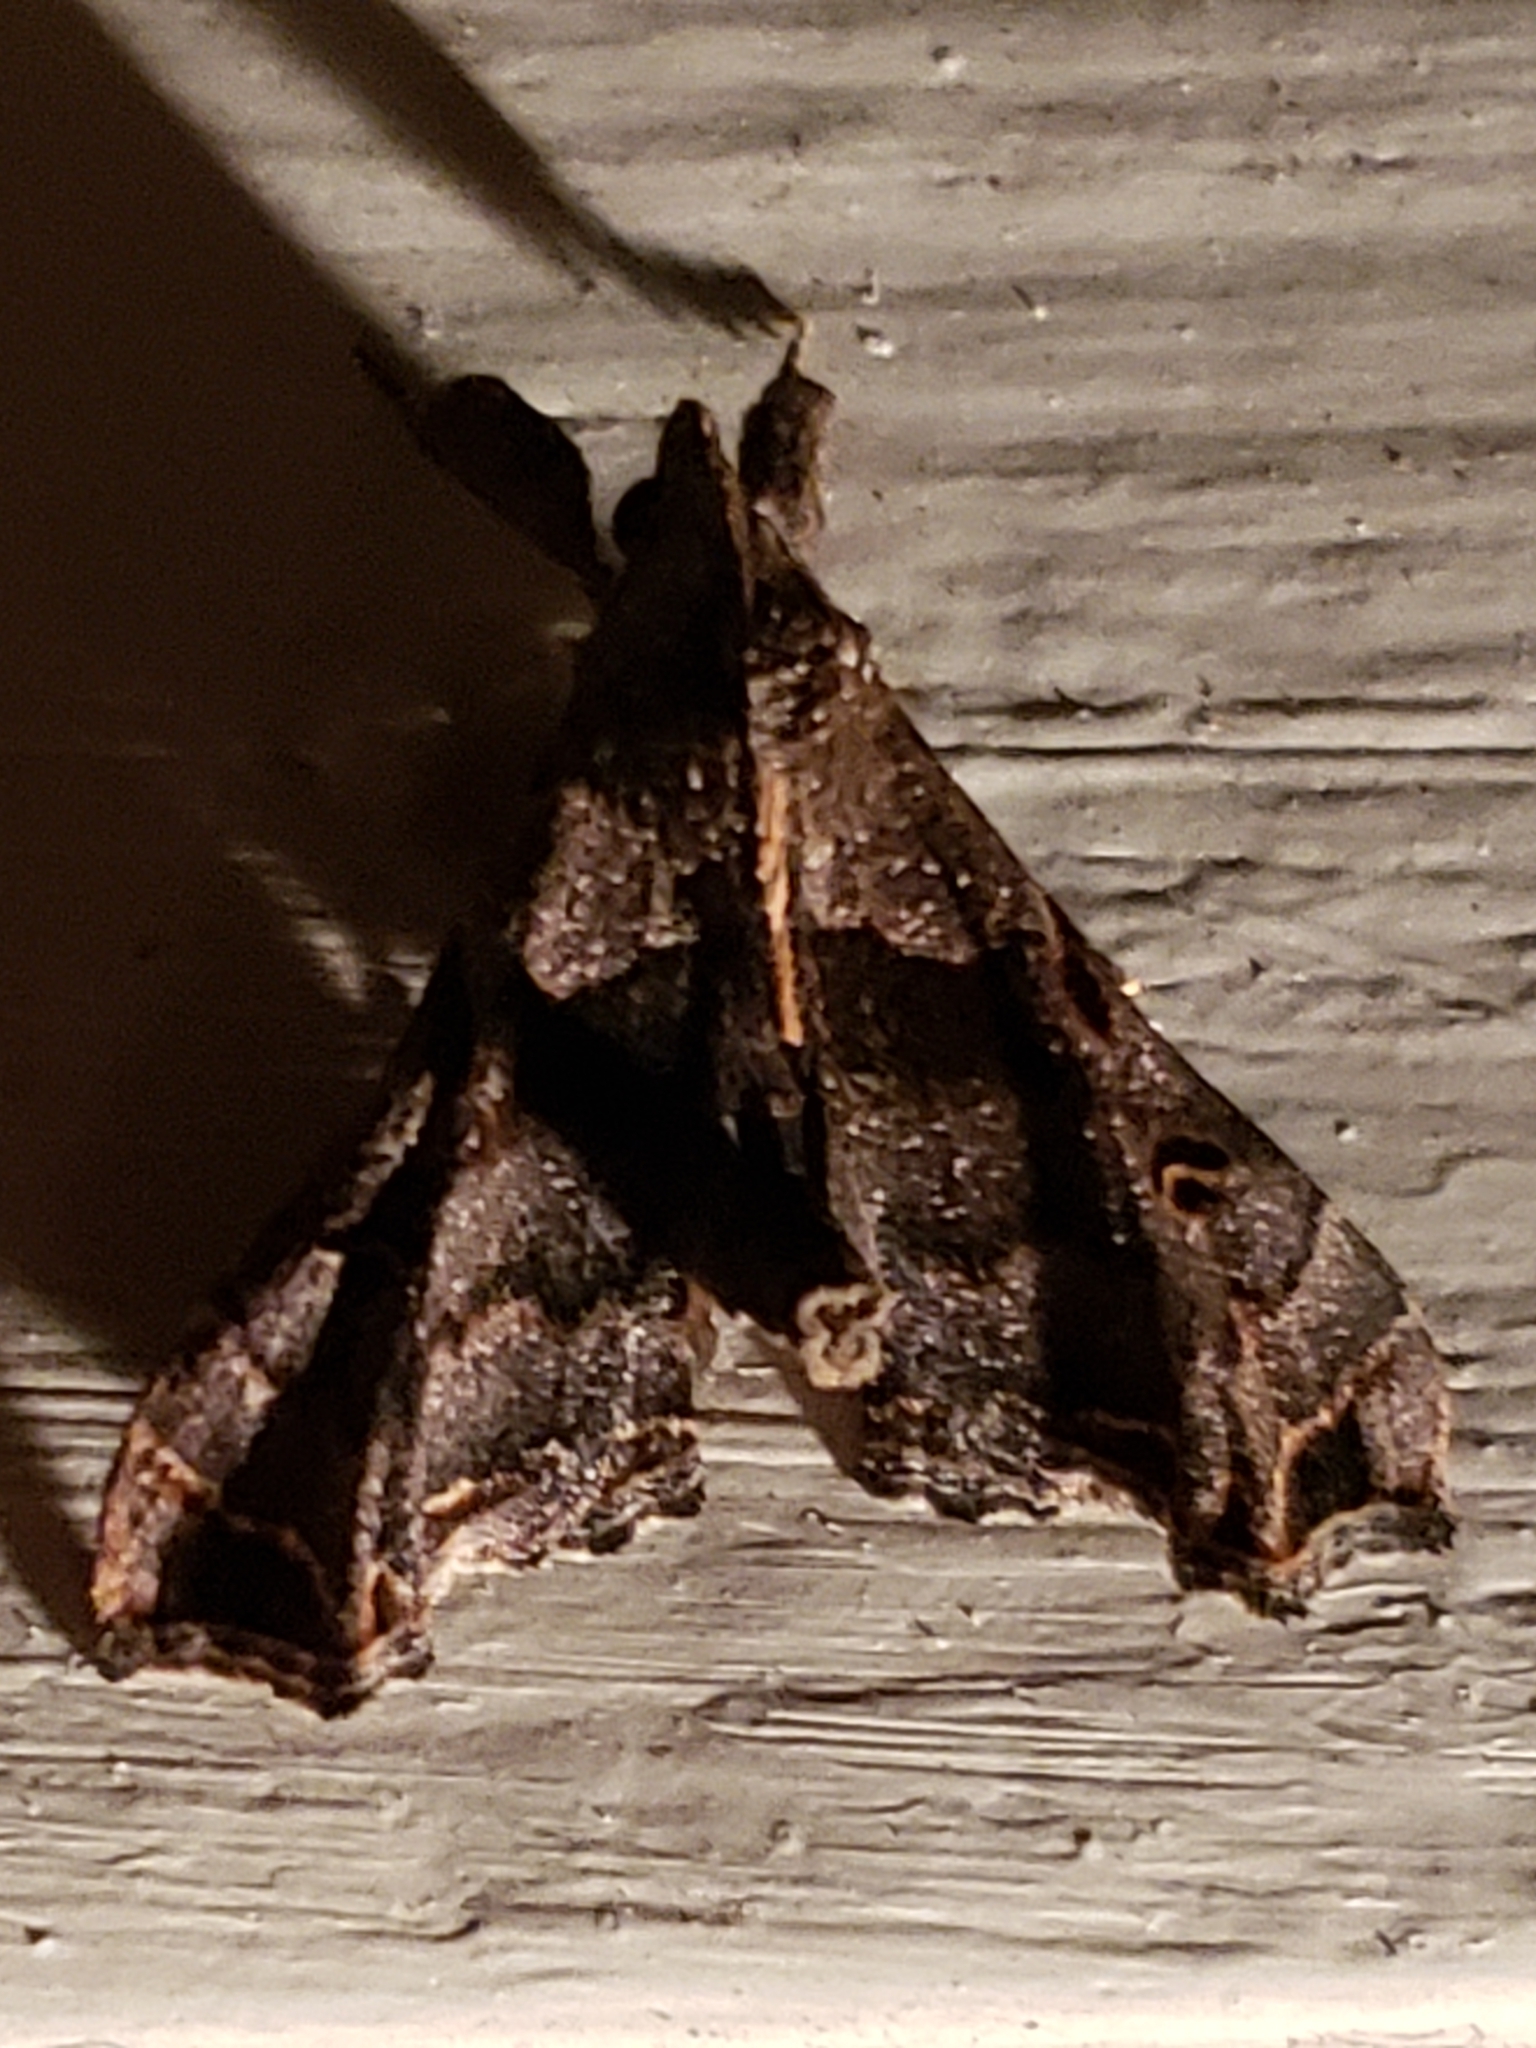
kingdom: Animalia
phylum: Arthropoda
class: Insecta
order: Lepidoptera
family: Erebidae
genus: Palthis
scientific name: Palthis asopialis
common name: Faint-spotted palthis moth
